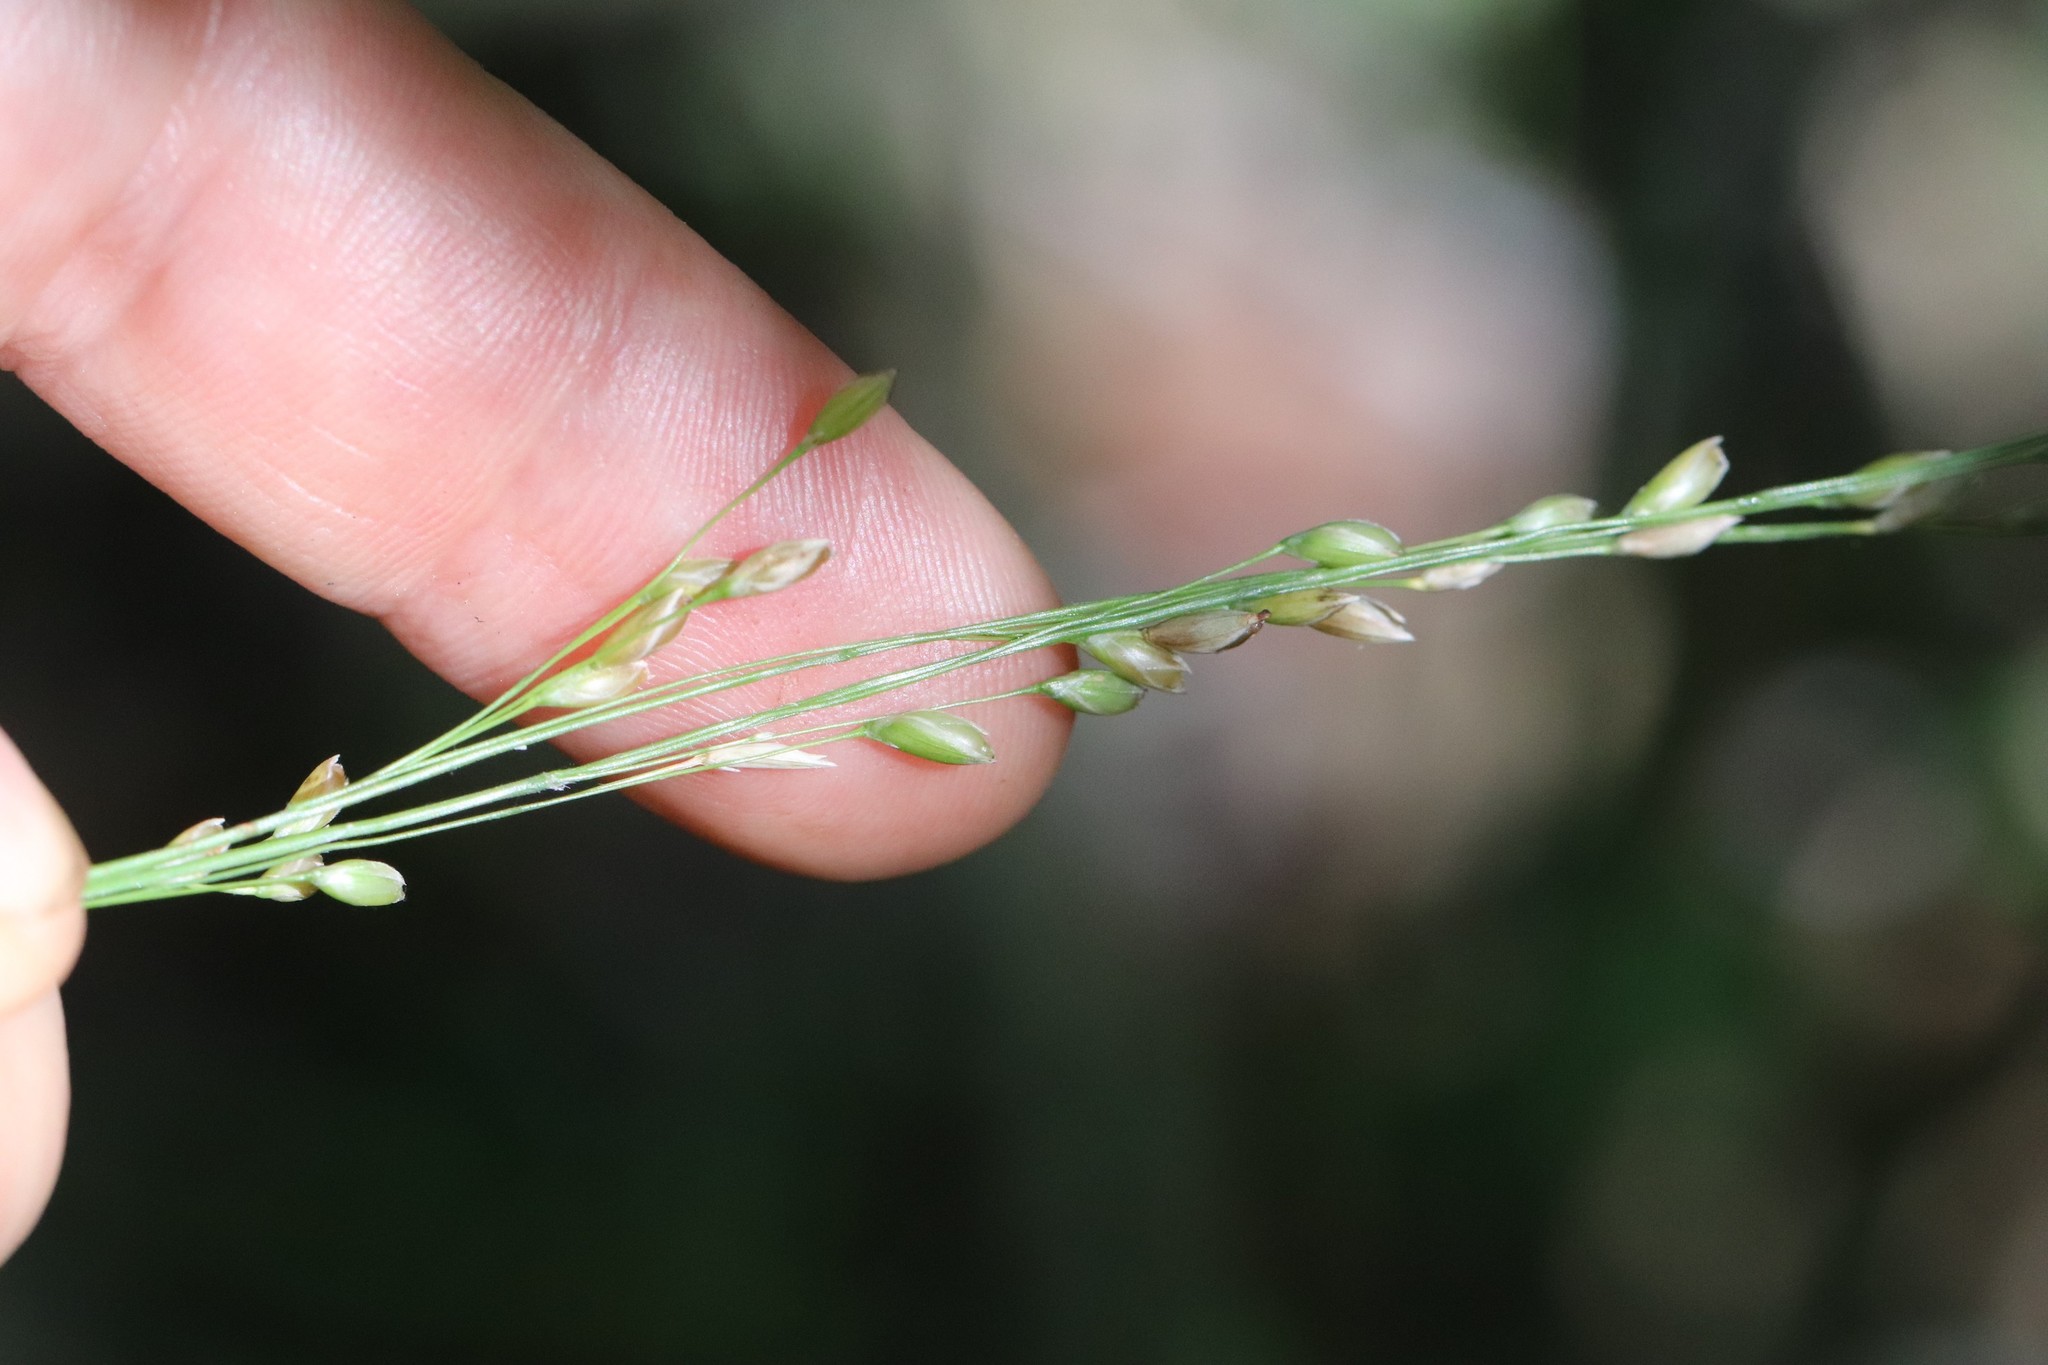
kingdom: Plantae
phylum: Tracheophyta
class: Liliopsida
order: Poales
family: Poaceae
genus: Diarrhena
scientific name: Diarrhena mandshurica
